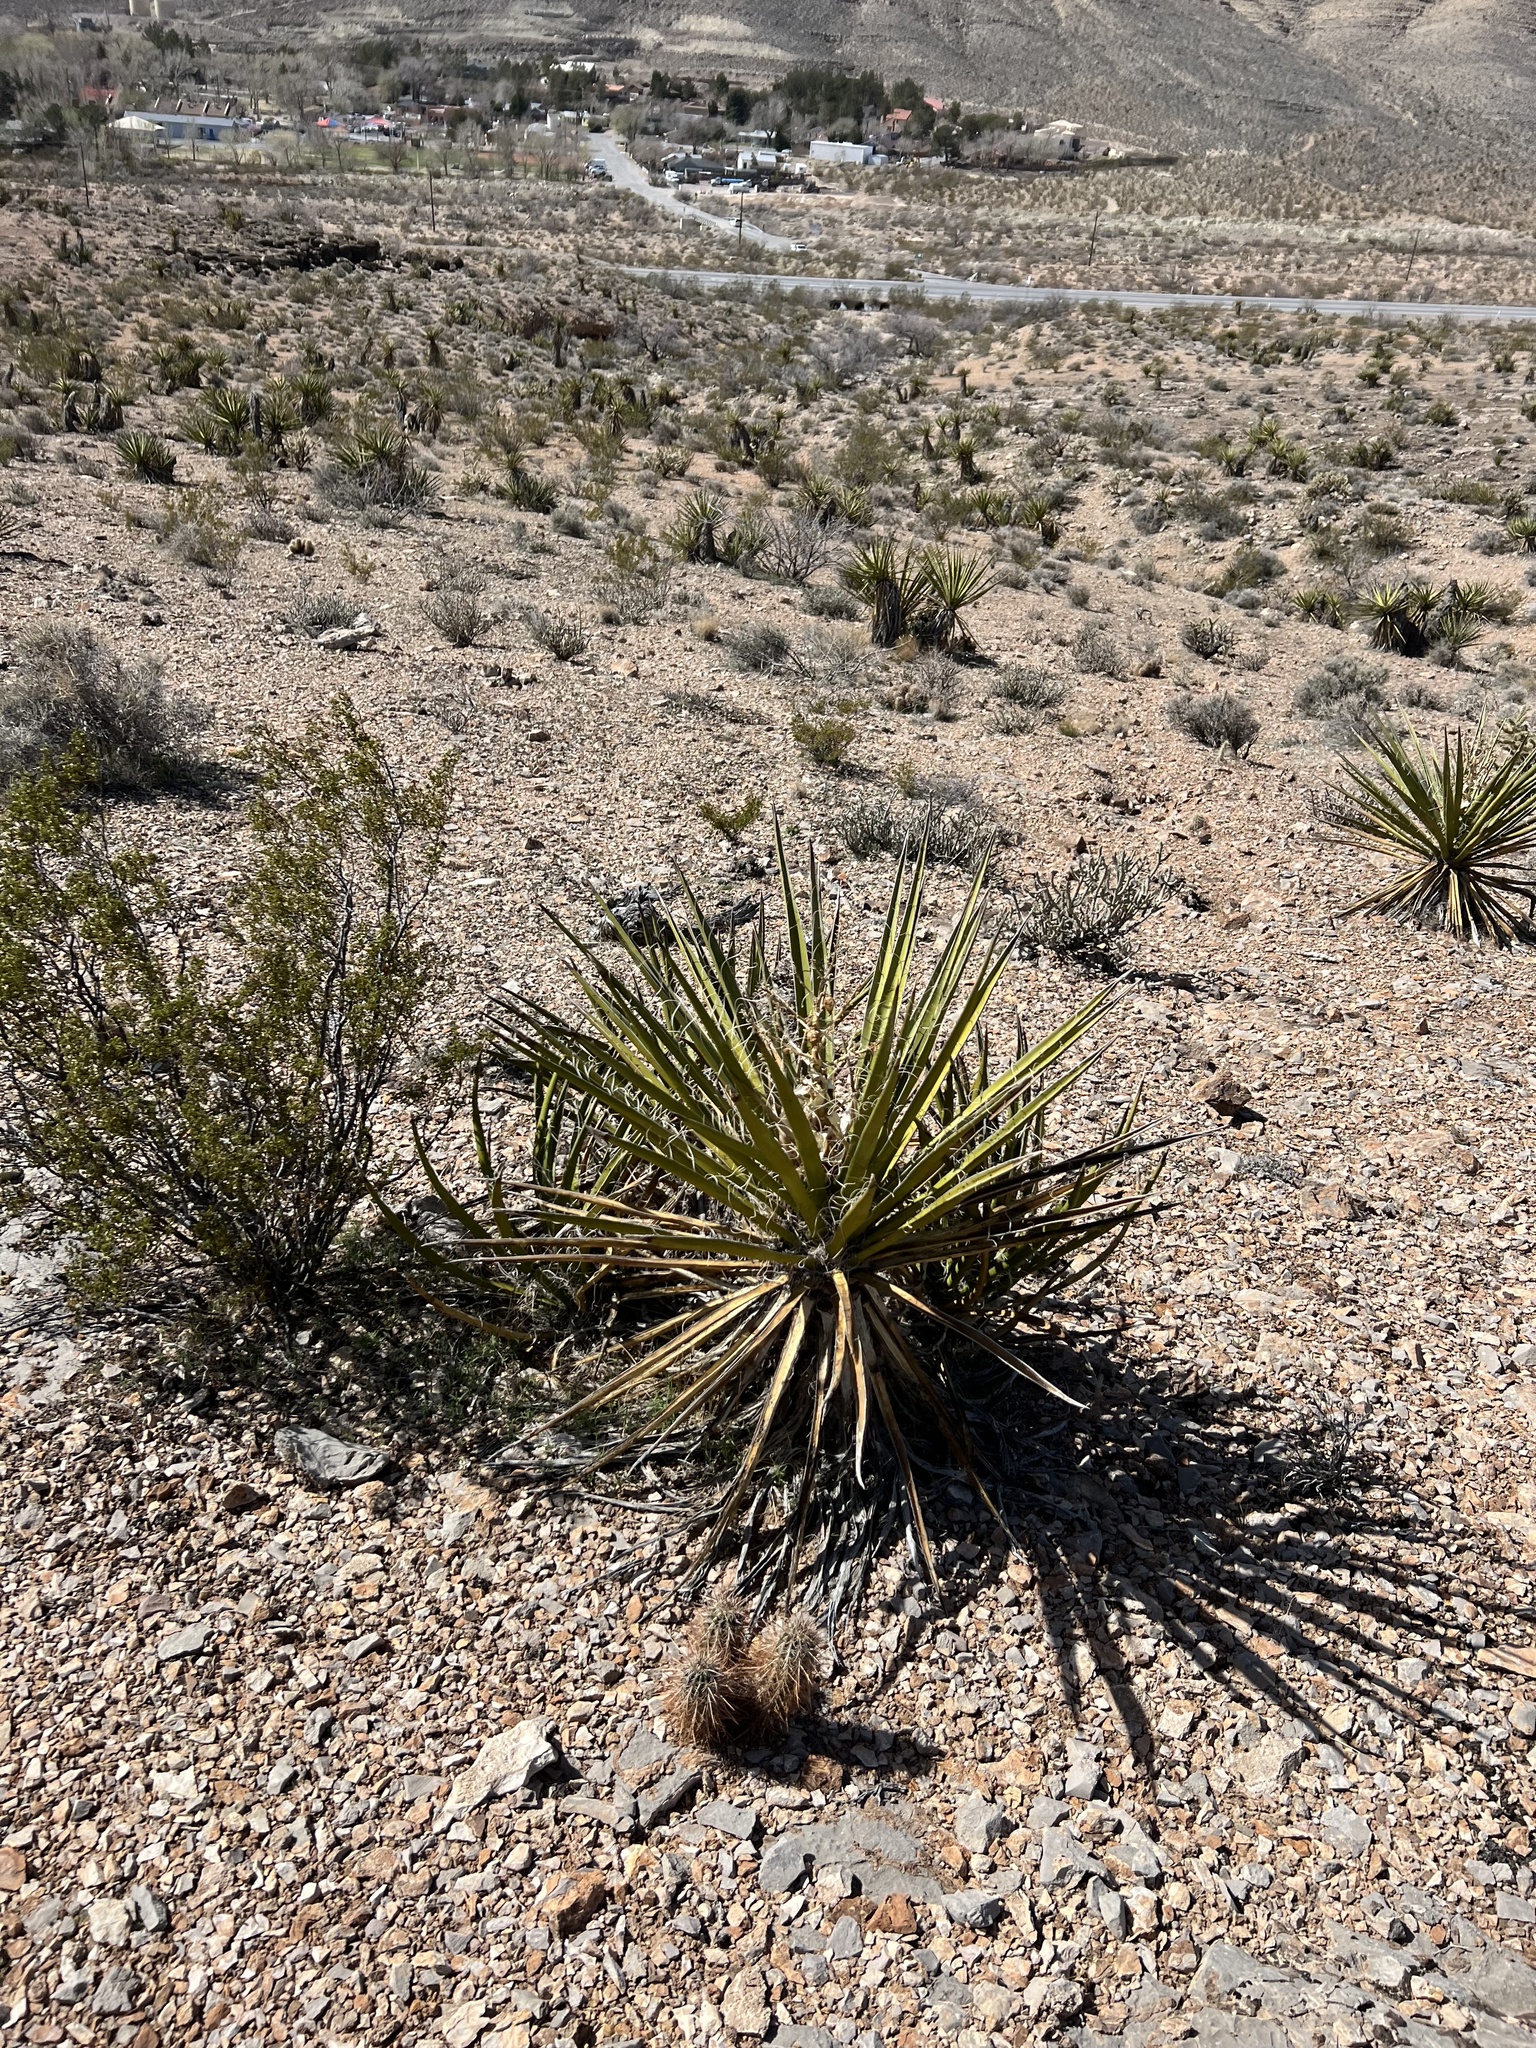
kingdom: Plantae
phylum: Tracheophyta
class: Liliopsida
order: Asparagales
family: Asparagaceae
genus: Yucca
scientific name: Yucca schidigera
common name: Mojave yucca
